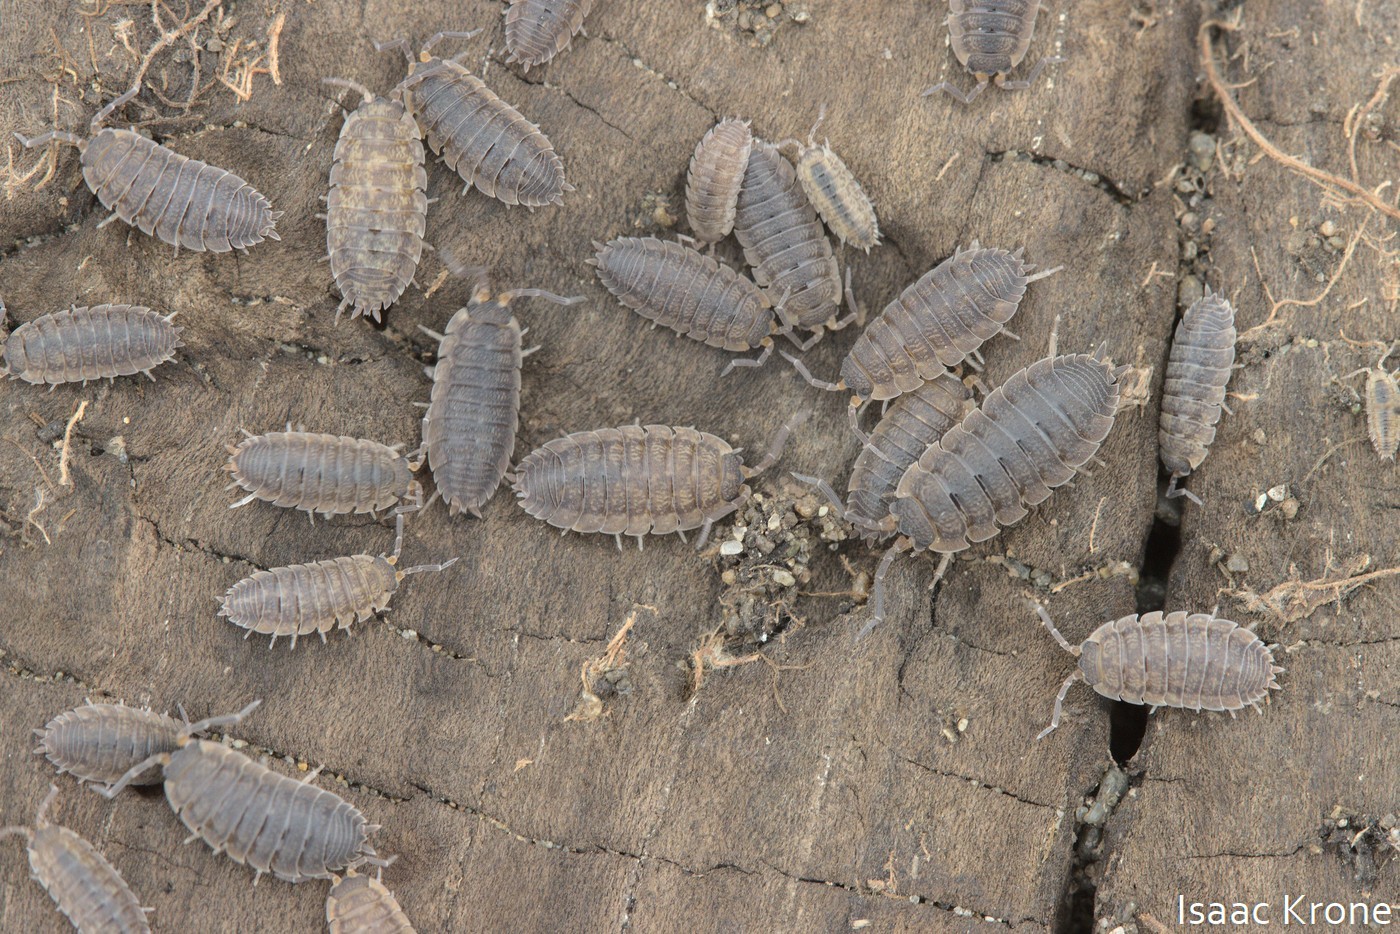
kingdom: Animalia
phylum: Arthropoda
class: Malacostraca
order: Isopoda
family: Porcellionidae
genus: Porcellio
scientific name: Porcellio scaber
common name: Common rough woodlouse
